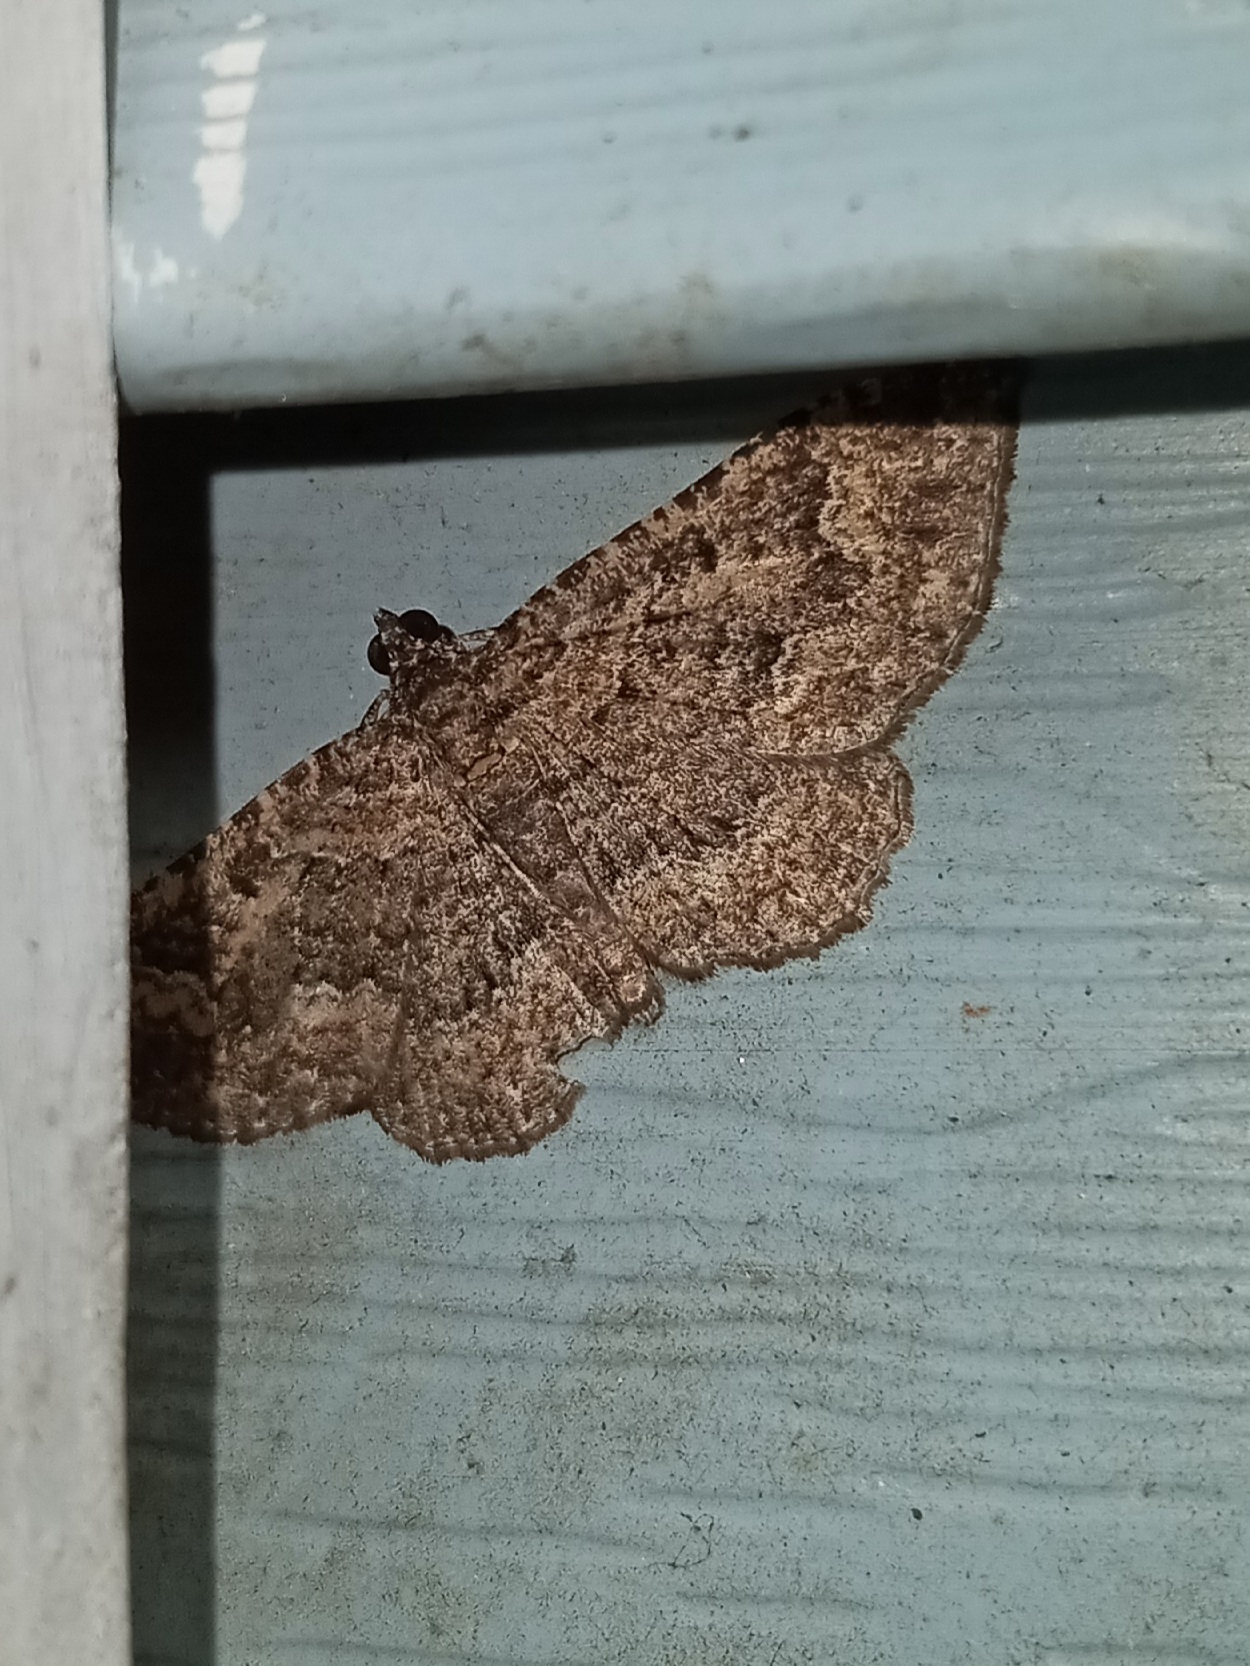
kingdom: Animalia
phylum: Arthropoda
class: Insecta
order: Lepidoptera
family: Geometridae
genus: Disclisioprocta
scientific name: Disclisioprocta stellata
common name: Somber carpet
